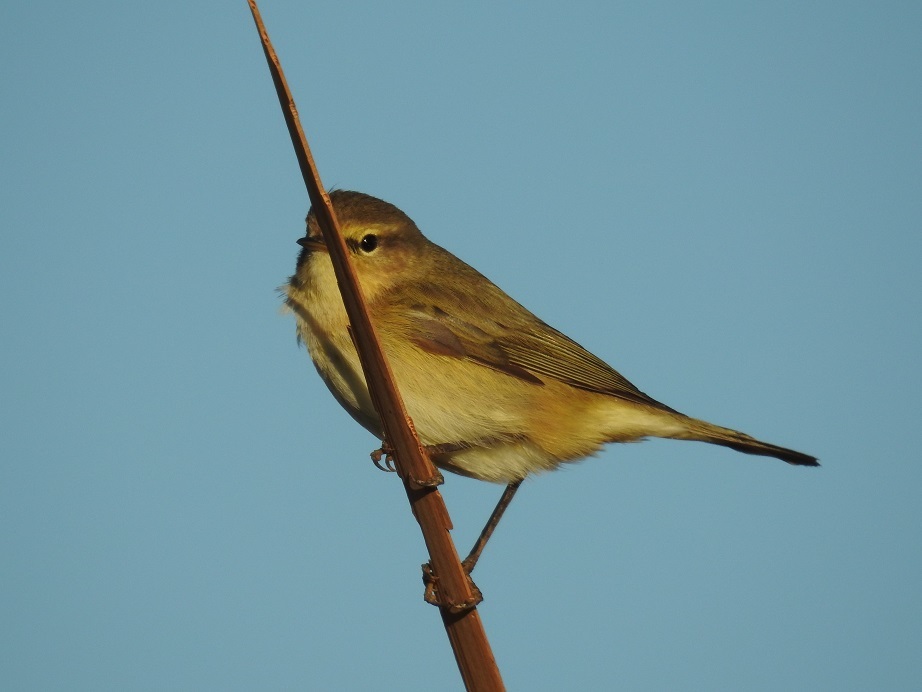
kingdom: Animalia
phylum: Chordata
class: Aves
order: Passeriformes
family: Phylloscopidae
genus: Phylloscopus
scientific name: Phylloscopus collybita
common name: Common chiffchaff
